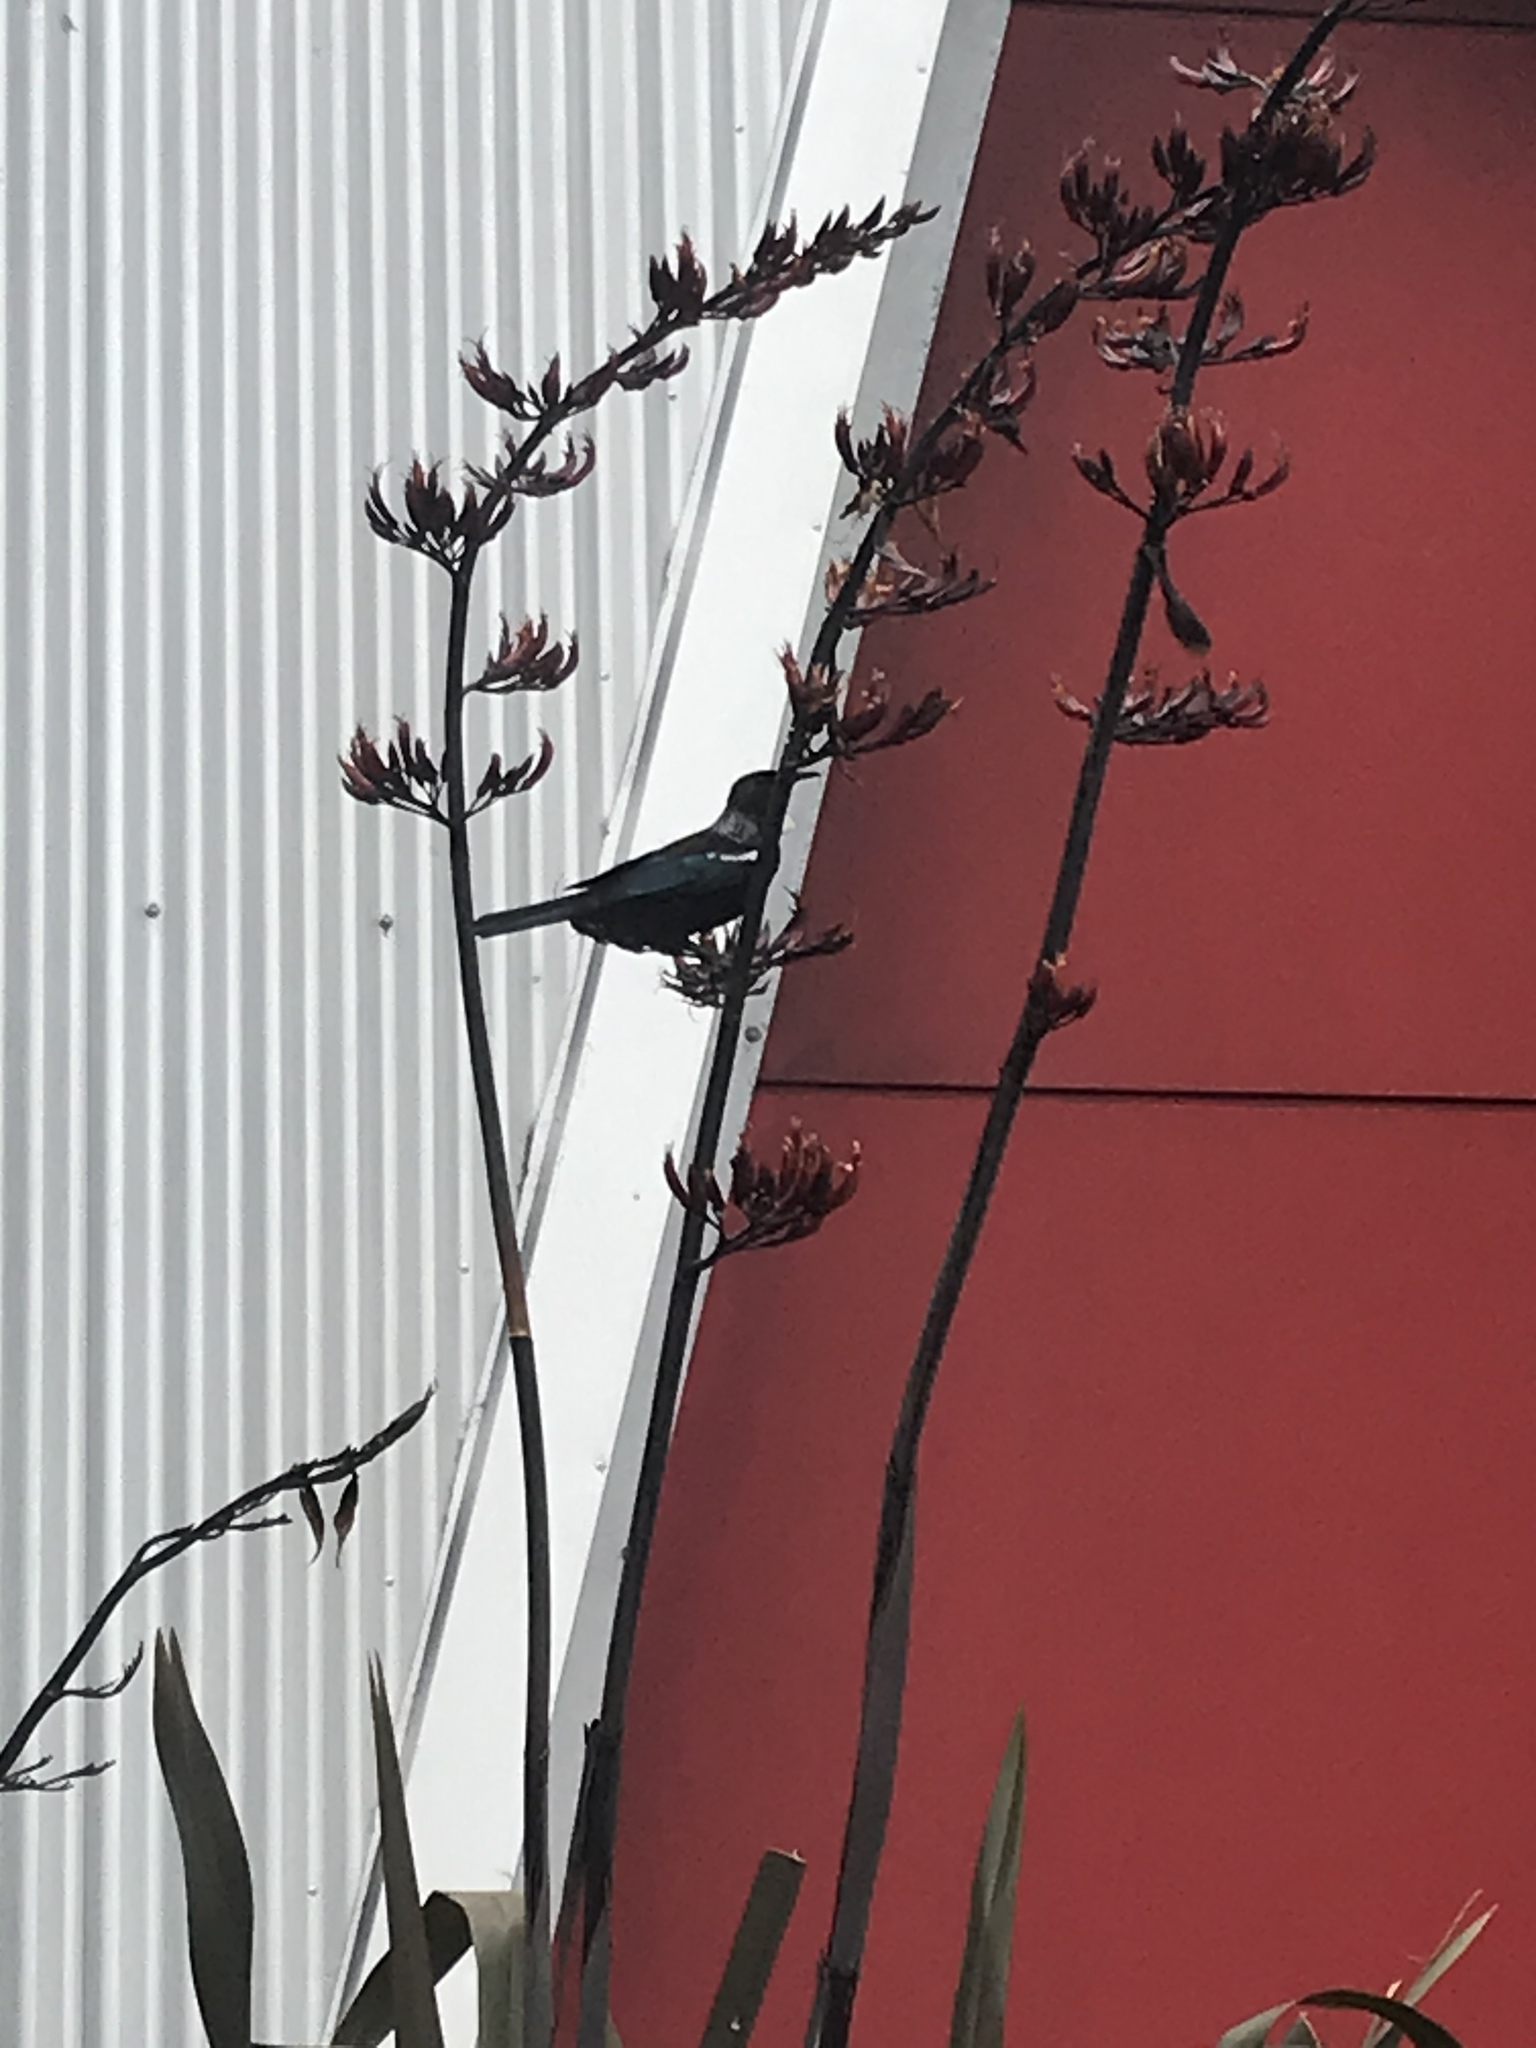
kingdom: Animalia
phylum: Chordata
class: Aves
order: Passeriformes
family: Meliphagidae
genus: Prosthemadera
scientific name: Prosthemadera novaeseelandiae
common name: Tui
